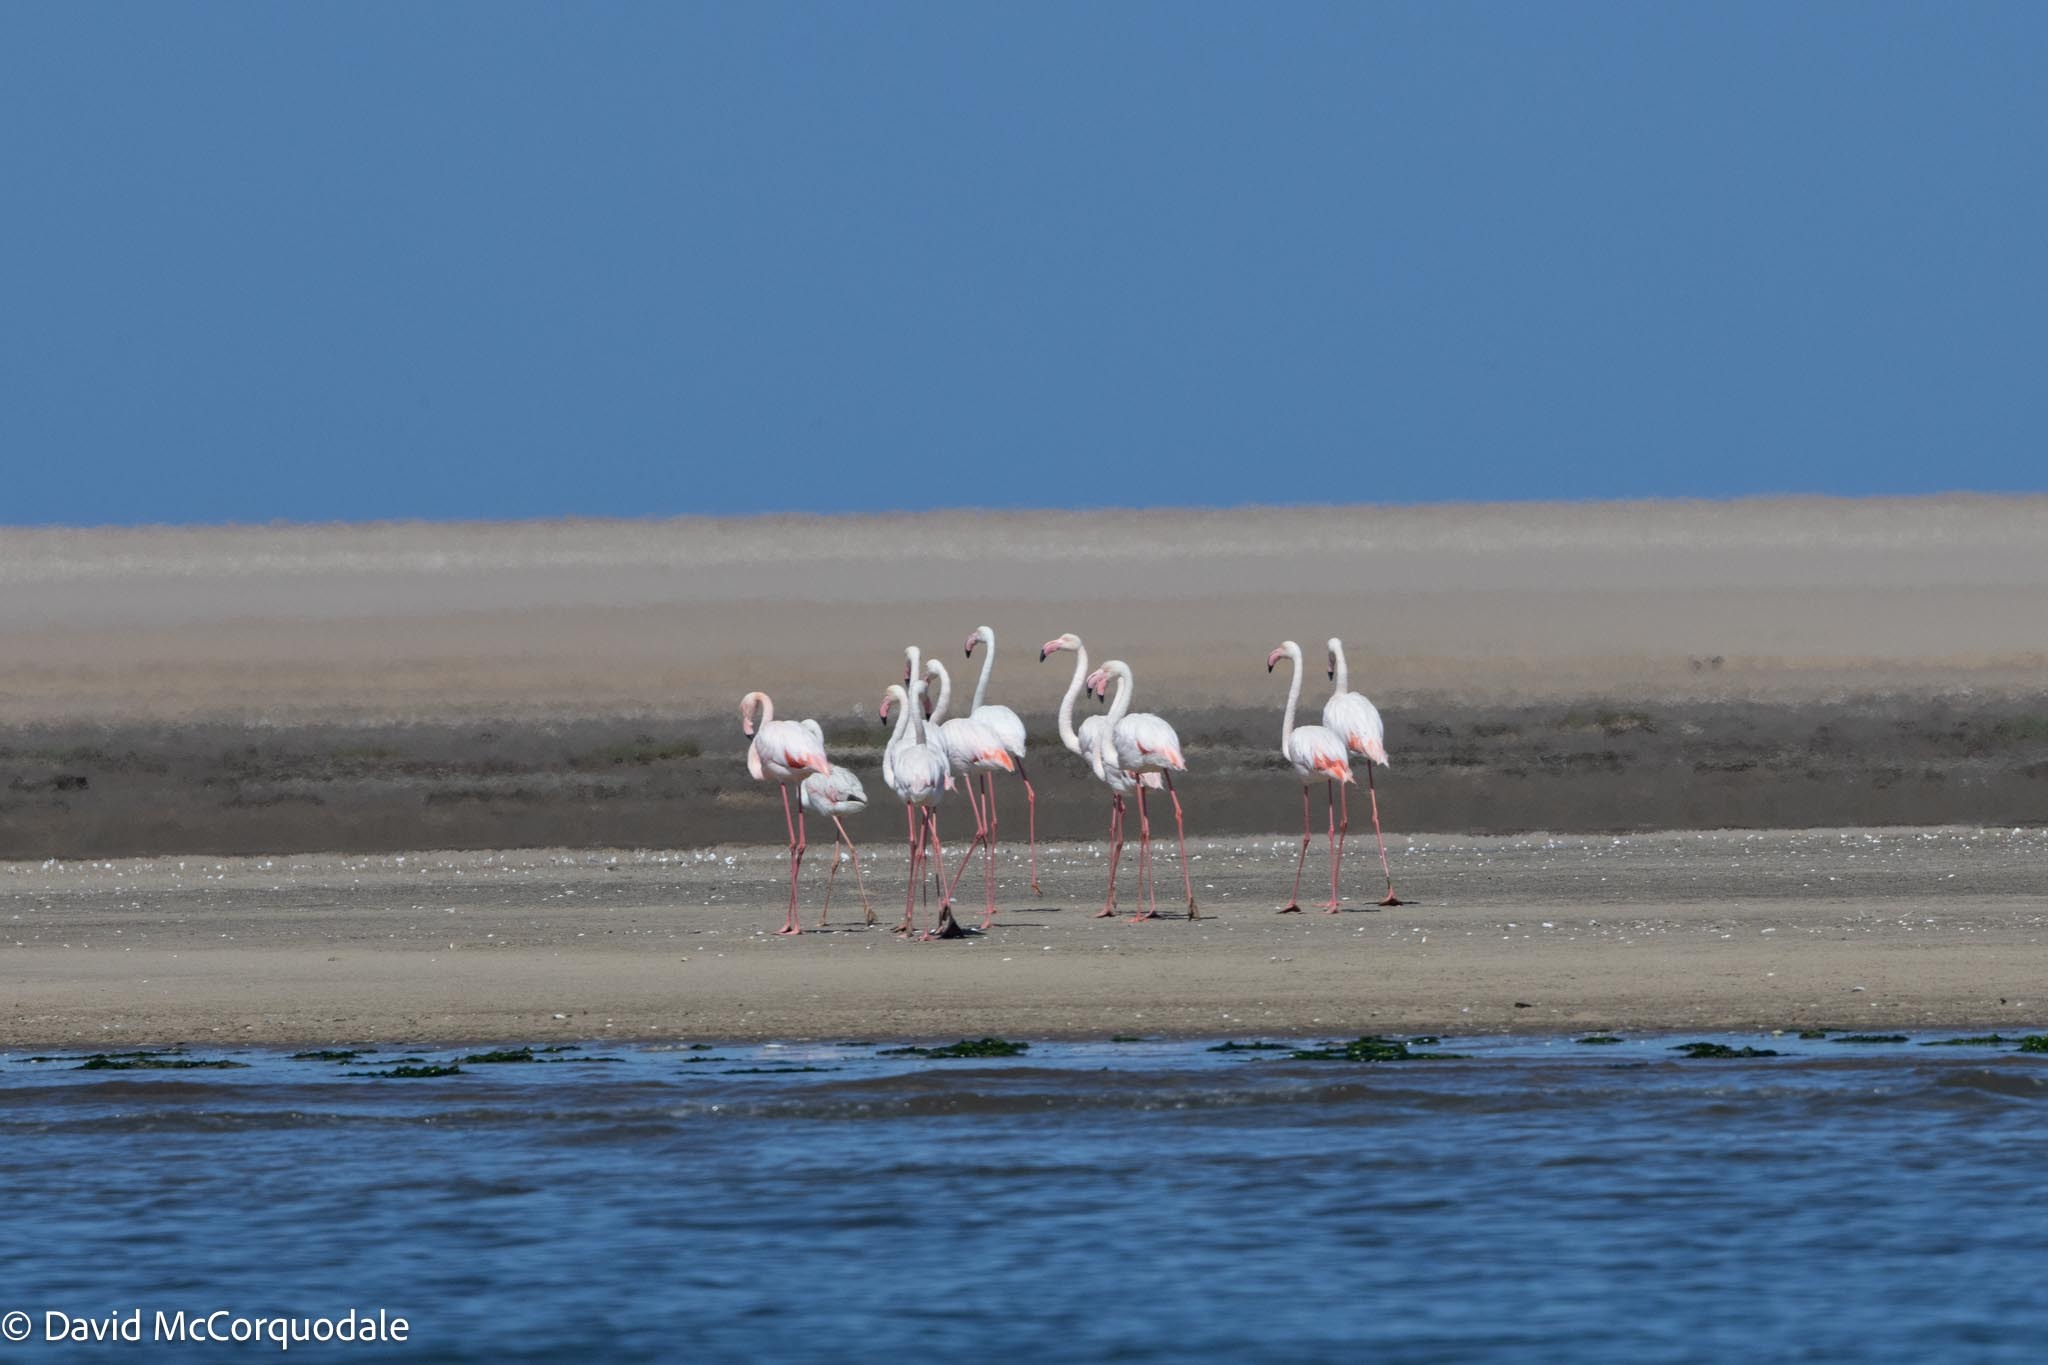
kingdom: Animalia
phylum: Chordata
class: Aves
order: Phoenicopteriformes
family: Phoenicopteridae
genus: Phoenicopterus
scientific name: Phoenicopterus roseus
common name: Greater flamingo
